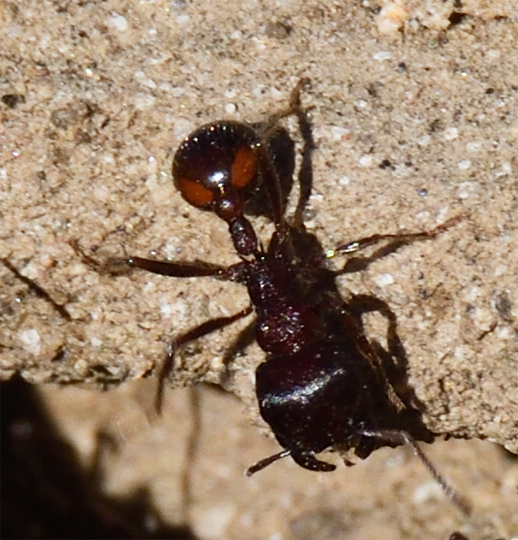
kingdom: Animalia
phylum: Arthropoda
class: Insecta
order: Hymenoptera
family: Formicidae
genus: Pogonomyrmex
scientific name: Pogonomyrmex rugosus
